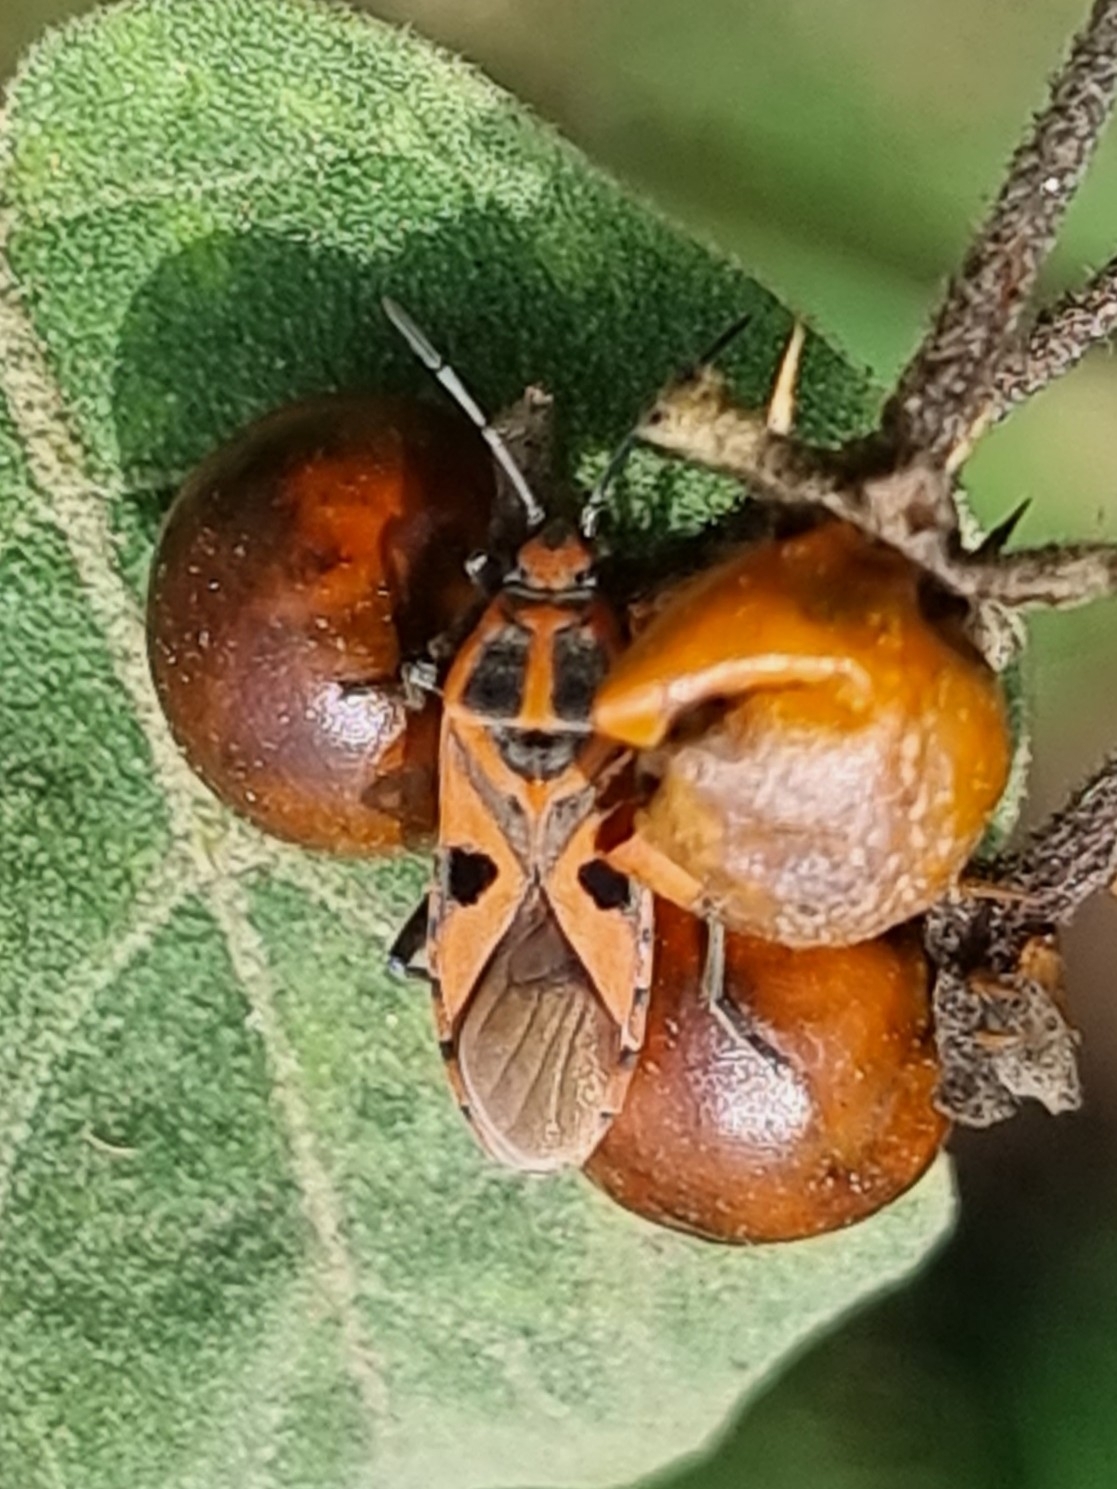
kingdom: Animalia
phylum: Arthropoda
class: Insecta
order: Hemiptera
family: Lygaeidae
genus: Spilostethus
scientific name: Spilostethus hospes
